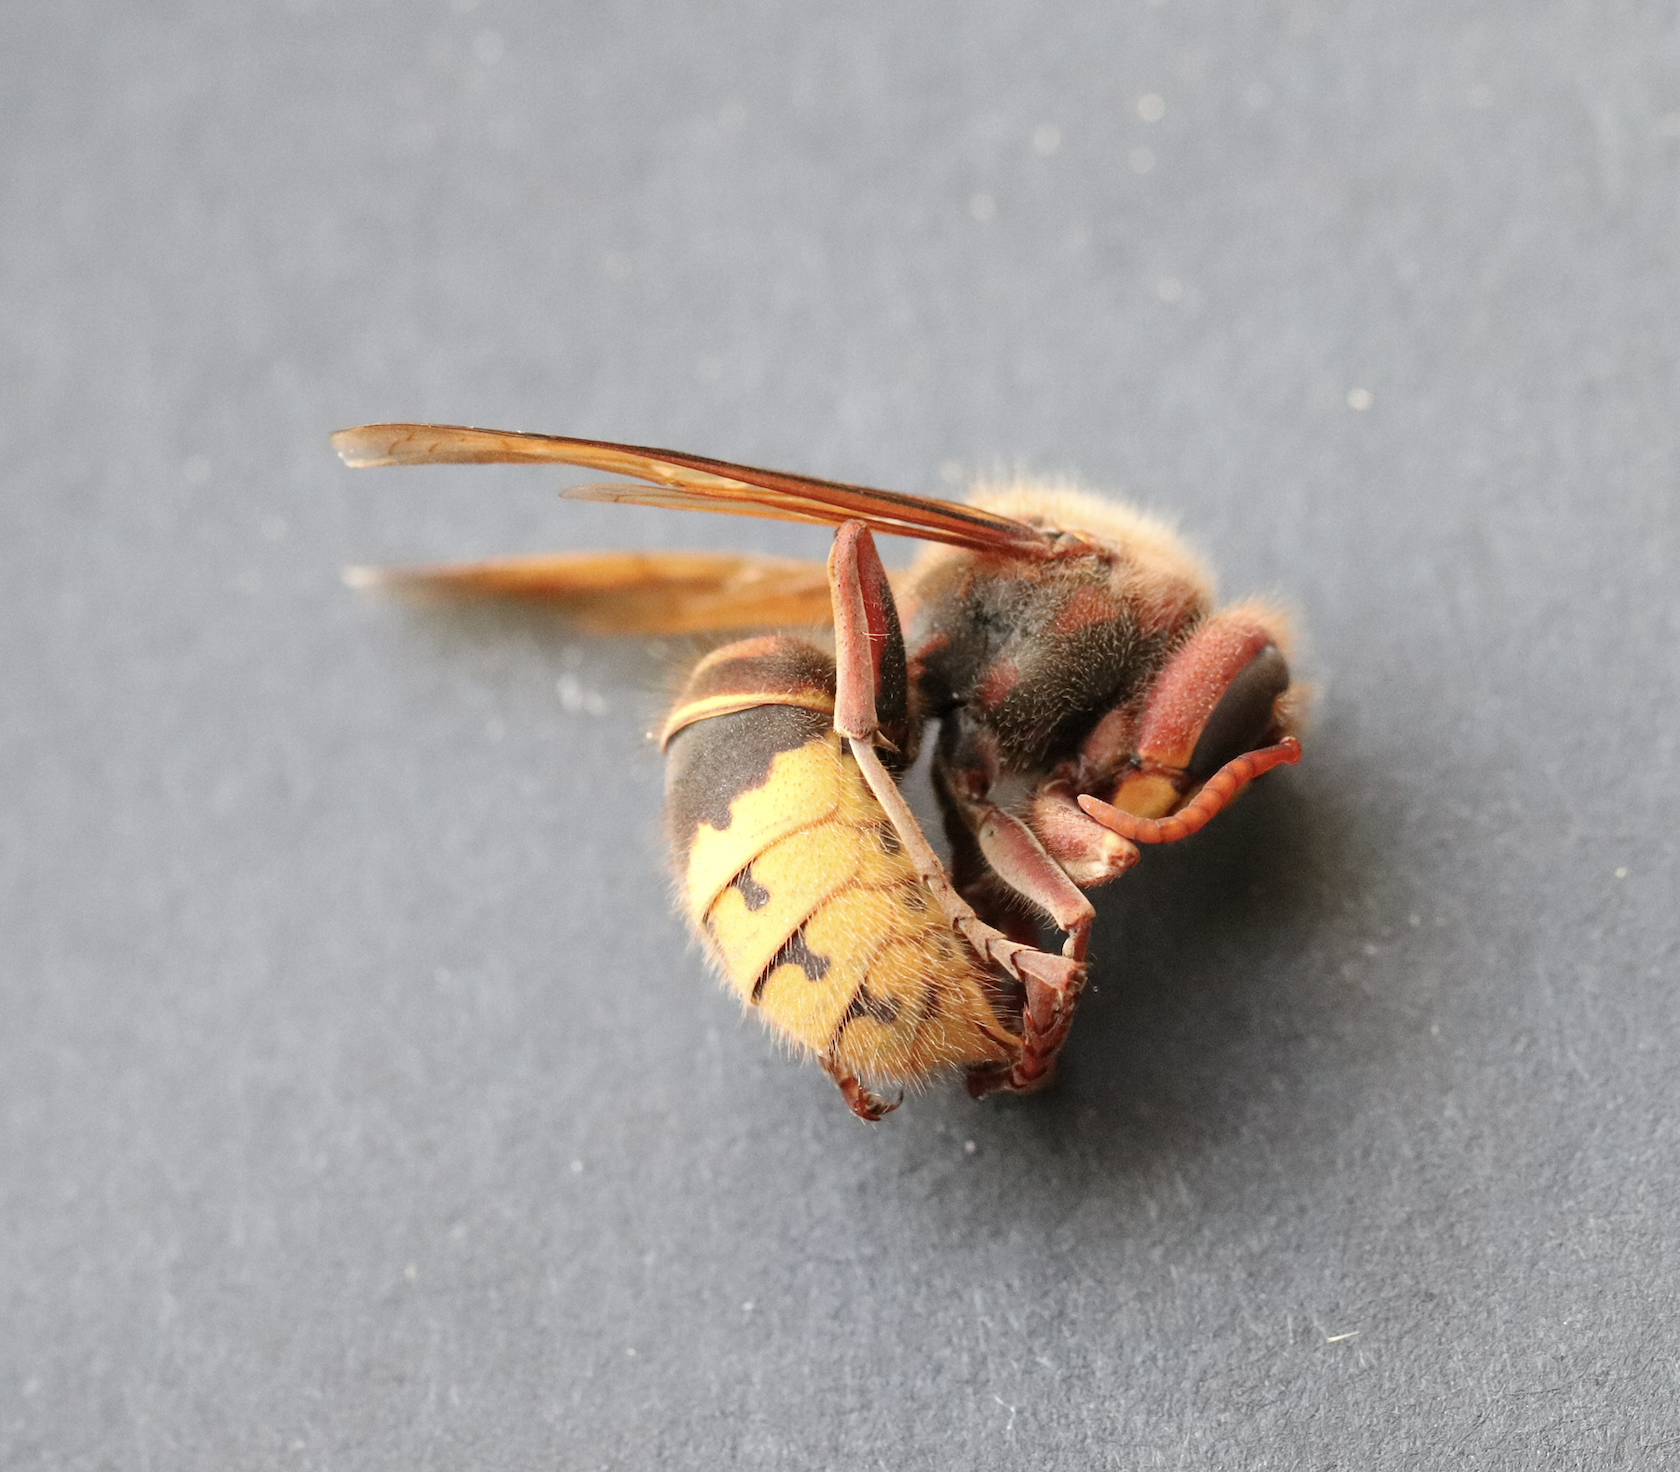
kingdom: Animalia
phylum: Arthropoda
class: Insecta
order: Hymenoptera
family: Vespidae
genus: Vespa
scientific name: Vespa crabro
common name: Hornet
